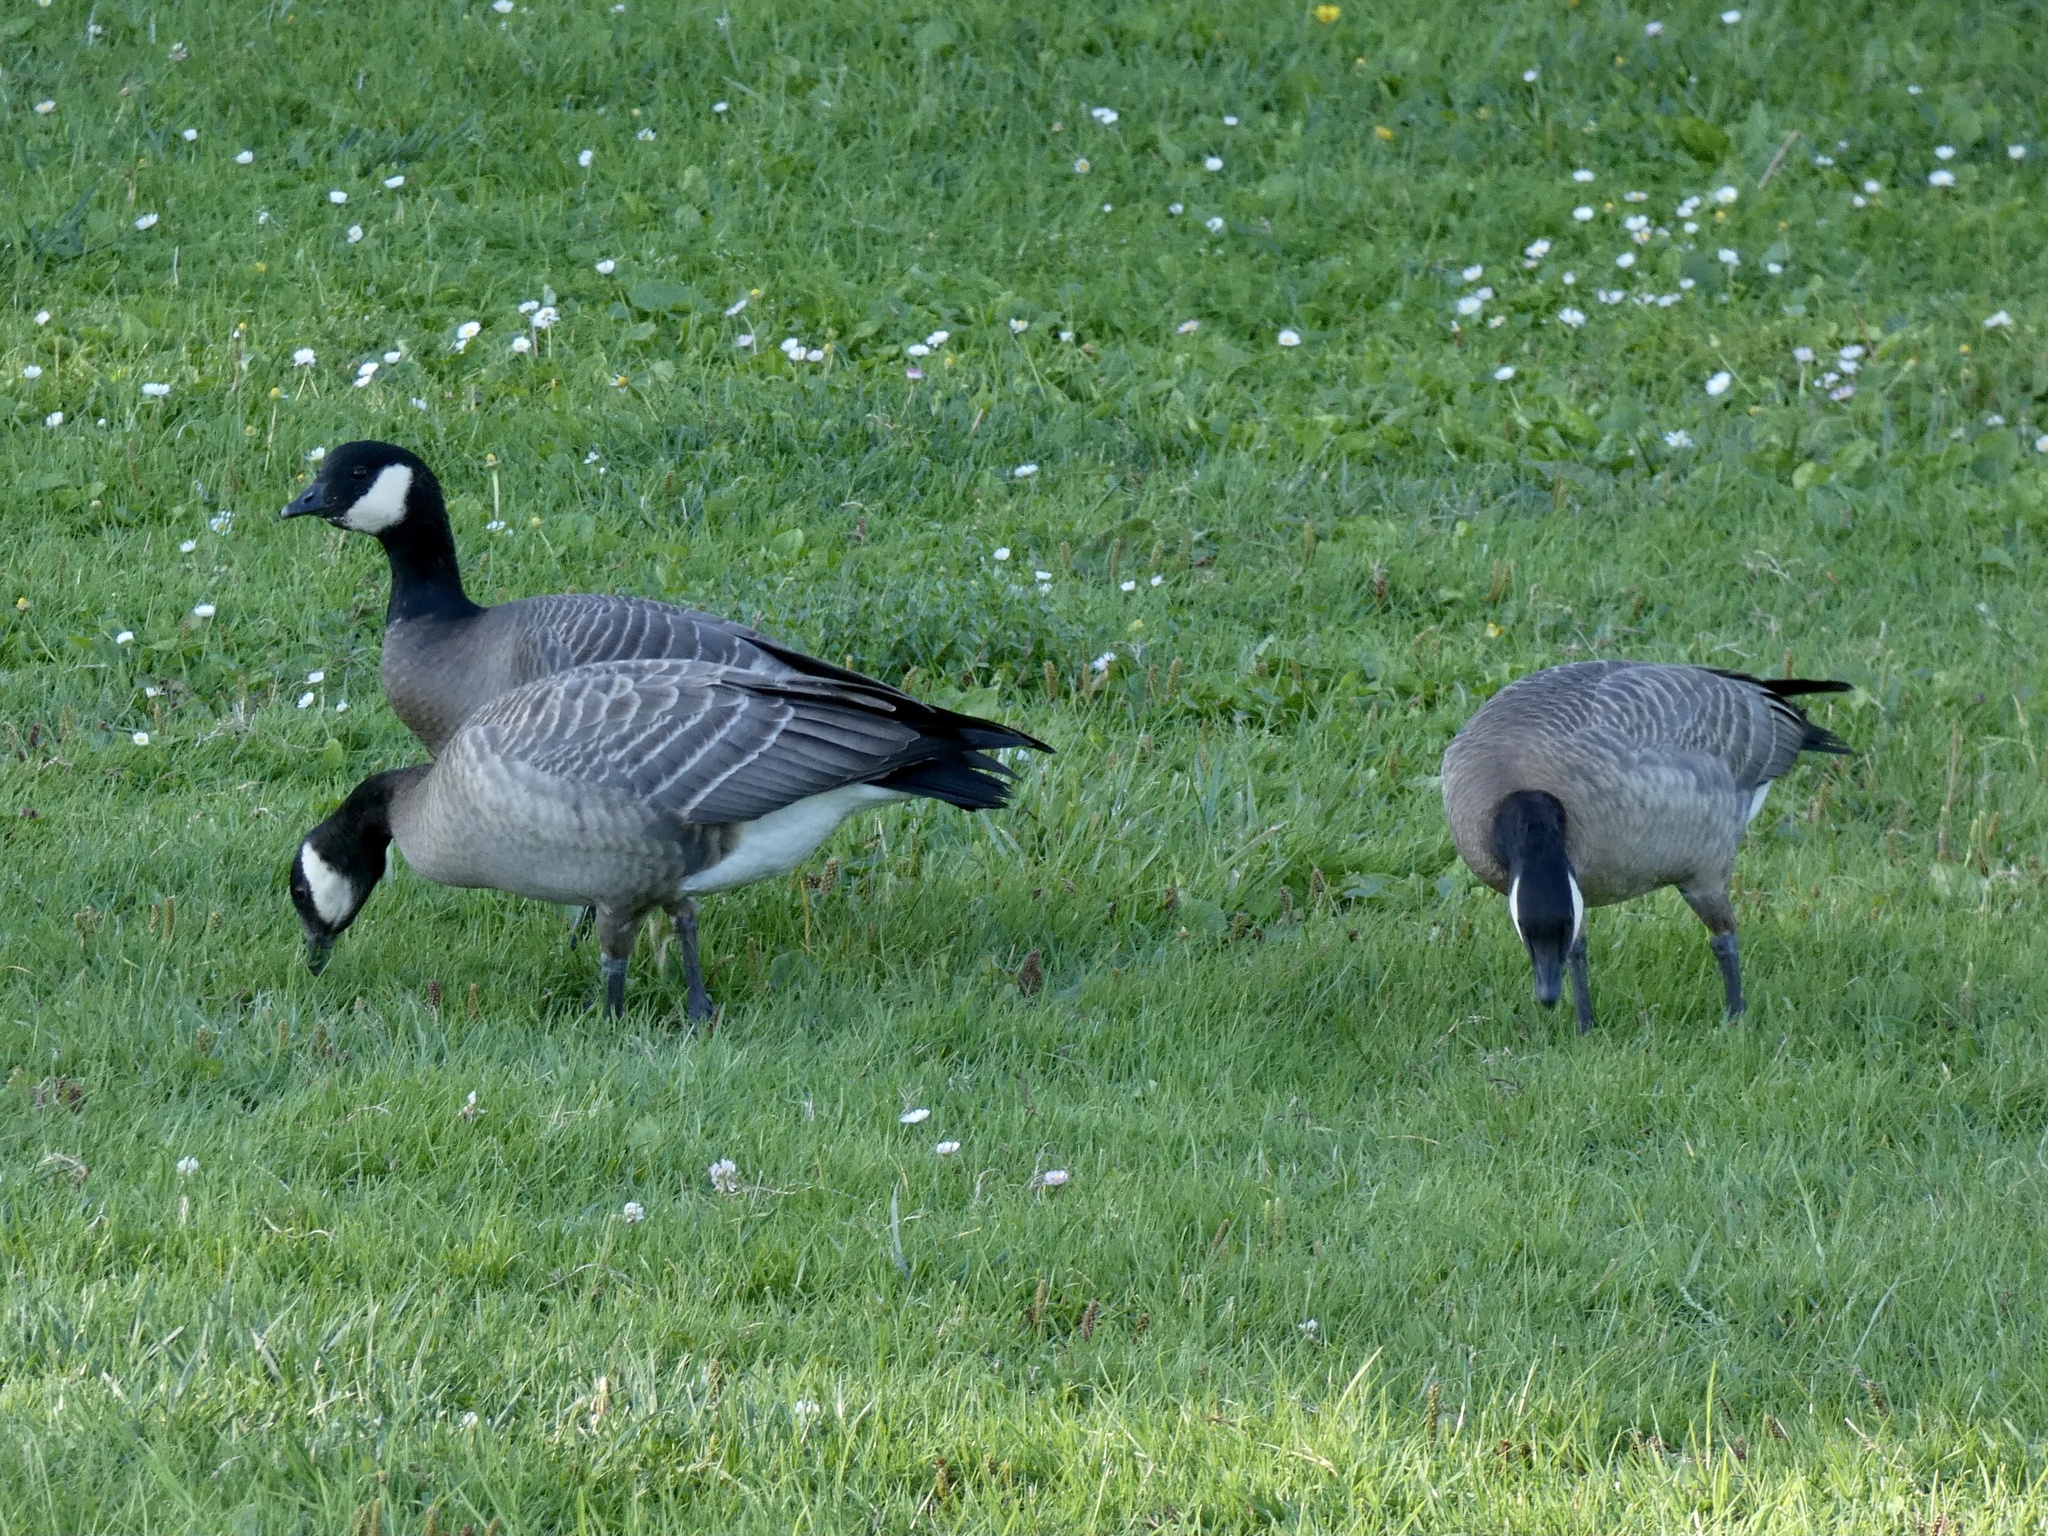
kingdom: Animalia
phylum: Chordata
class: Aves
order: Anseriformes
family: Anatidae
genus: Branta
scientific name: Branta hutchinsii
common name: Cackling goose
